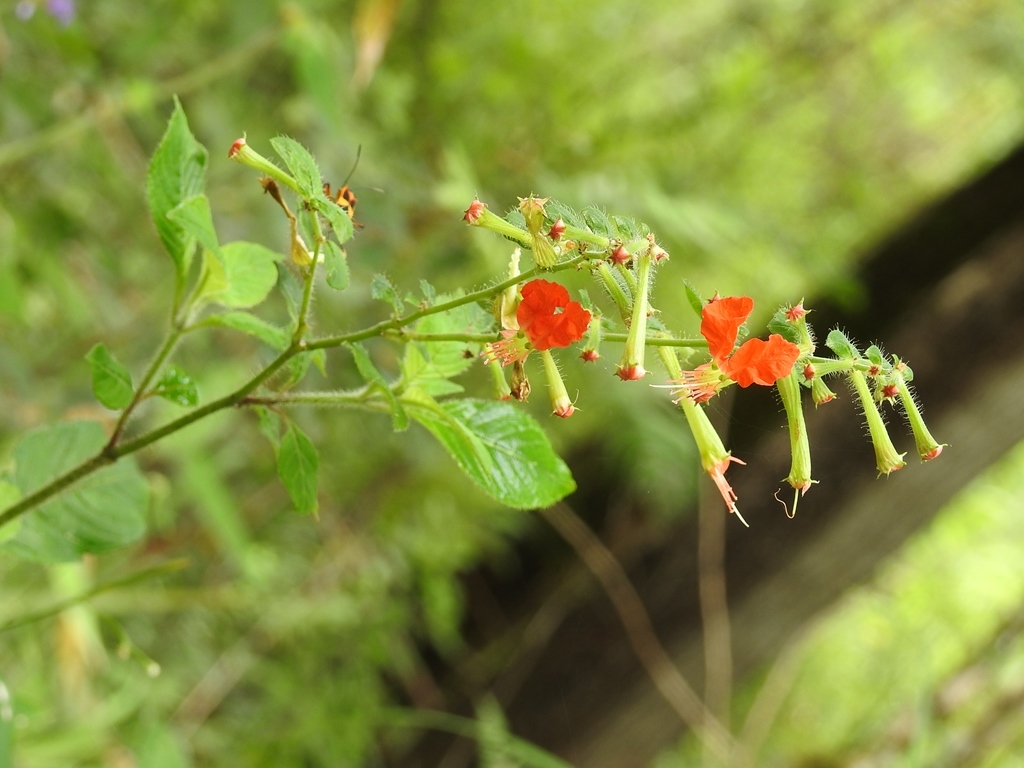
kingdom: Plantae
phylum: Tracheophyta
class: Magnoliopsida
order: Myrtales
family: Lythraceae
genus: Cuphea
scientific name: Cuphea nudicostata
